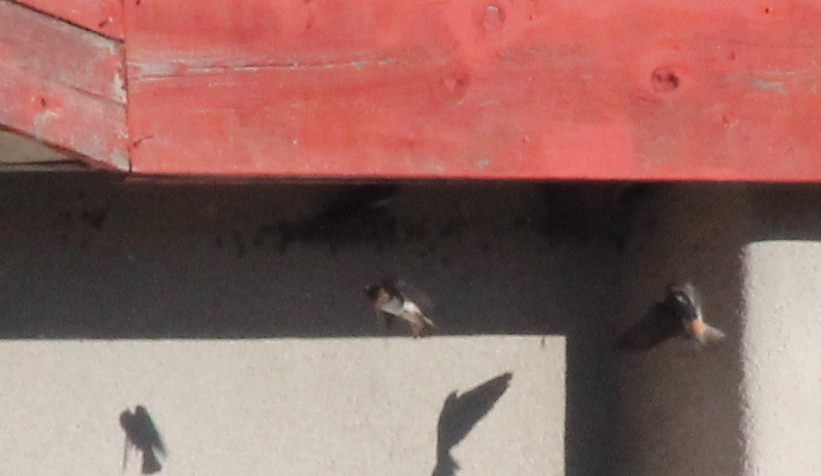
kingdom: Animalia
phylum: Chordata
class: Aves
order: Passeriformes
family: Hirundinidae
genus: Petrochelidon
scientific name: Petrochelidon pyrrhonota
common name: American cliff swallow
